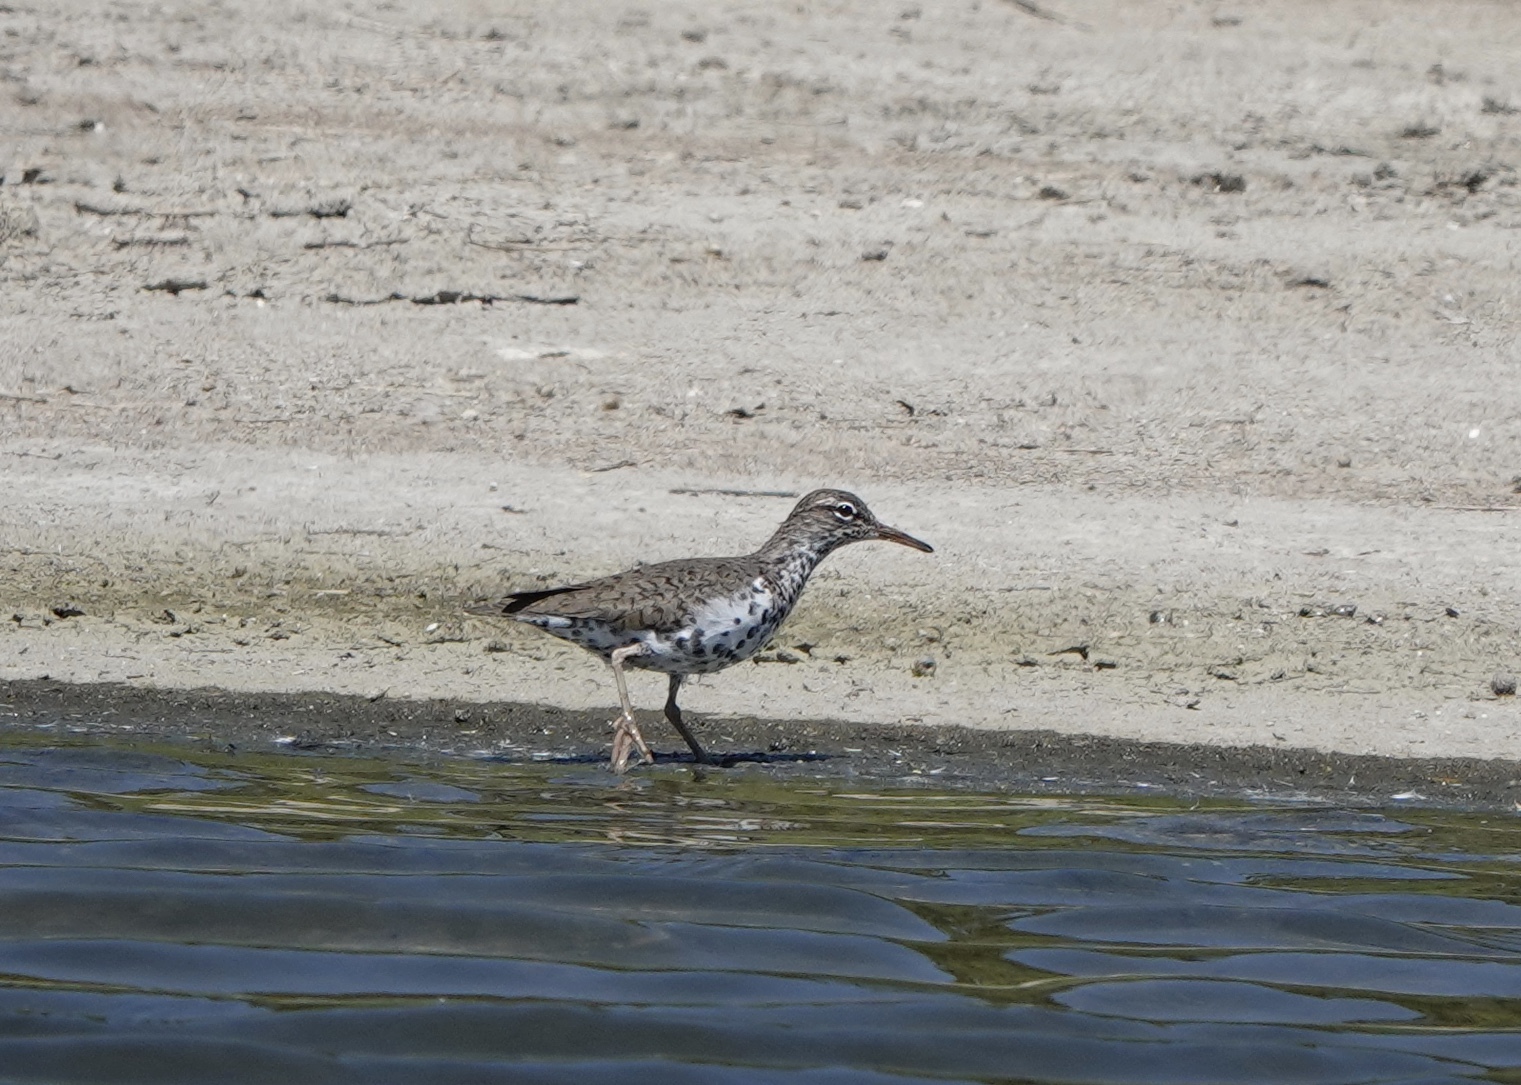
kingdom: Animalia
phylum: Chordata
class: Aves
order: Charadriiformes
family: Scolopacidae
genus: Actitis
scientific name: Actitis macularius
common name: Spotted sandpiper
